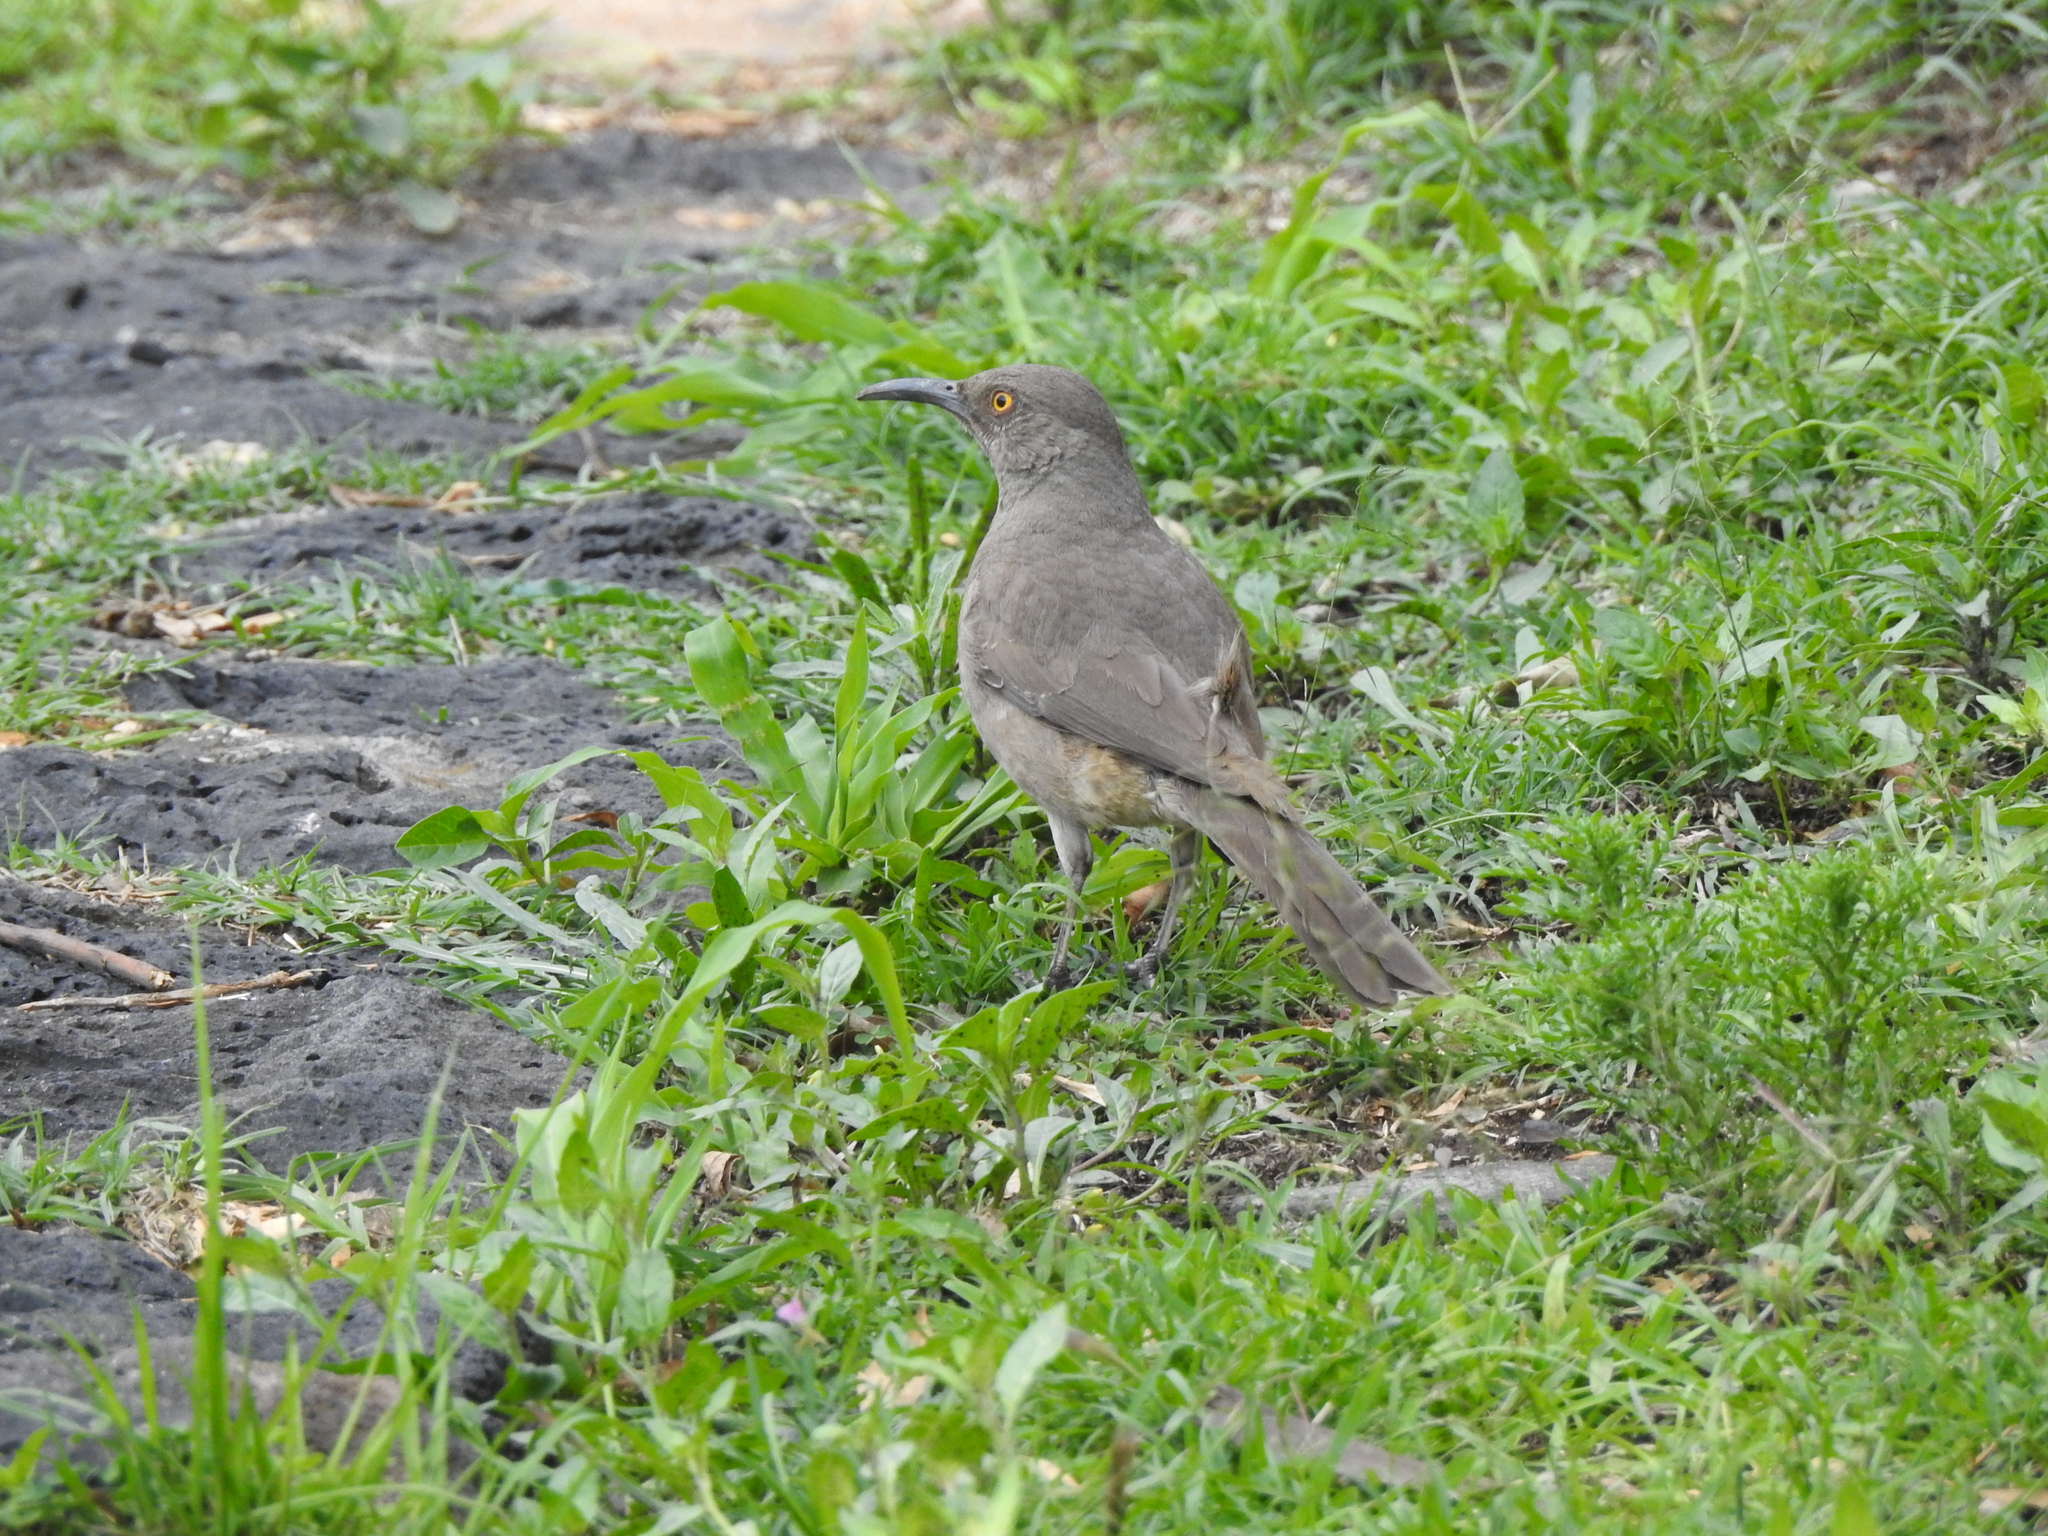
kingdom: Animalia
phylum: Chordata
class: Aves
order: Passeriformes
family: Mimidae
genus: Toxostoma
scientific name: Toxostoma curvirostre
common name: Curve-billed thrasher
